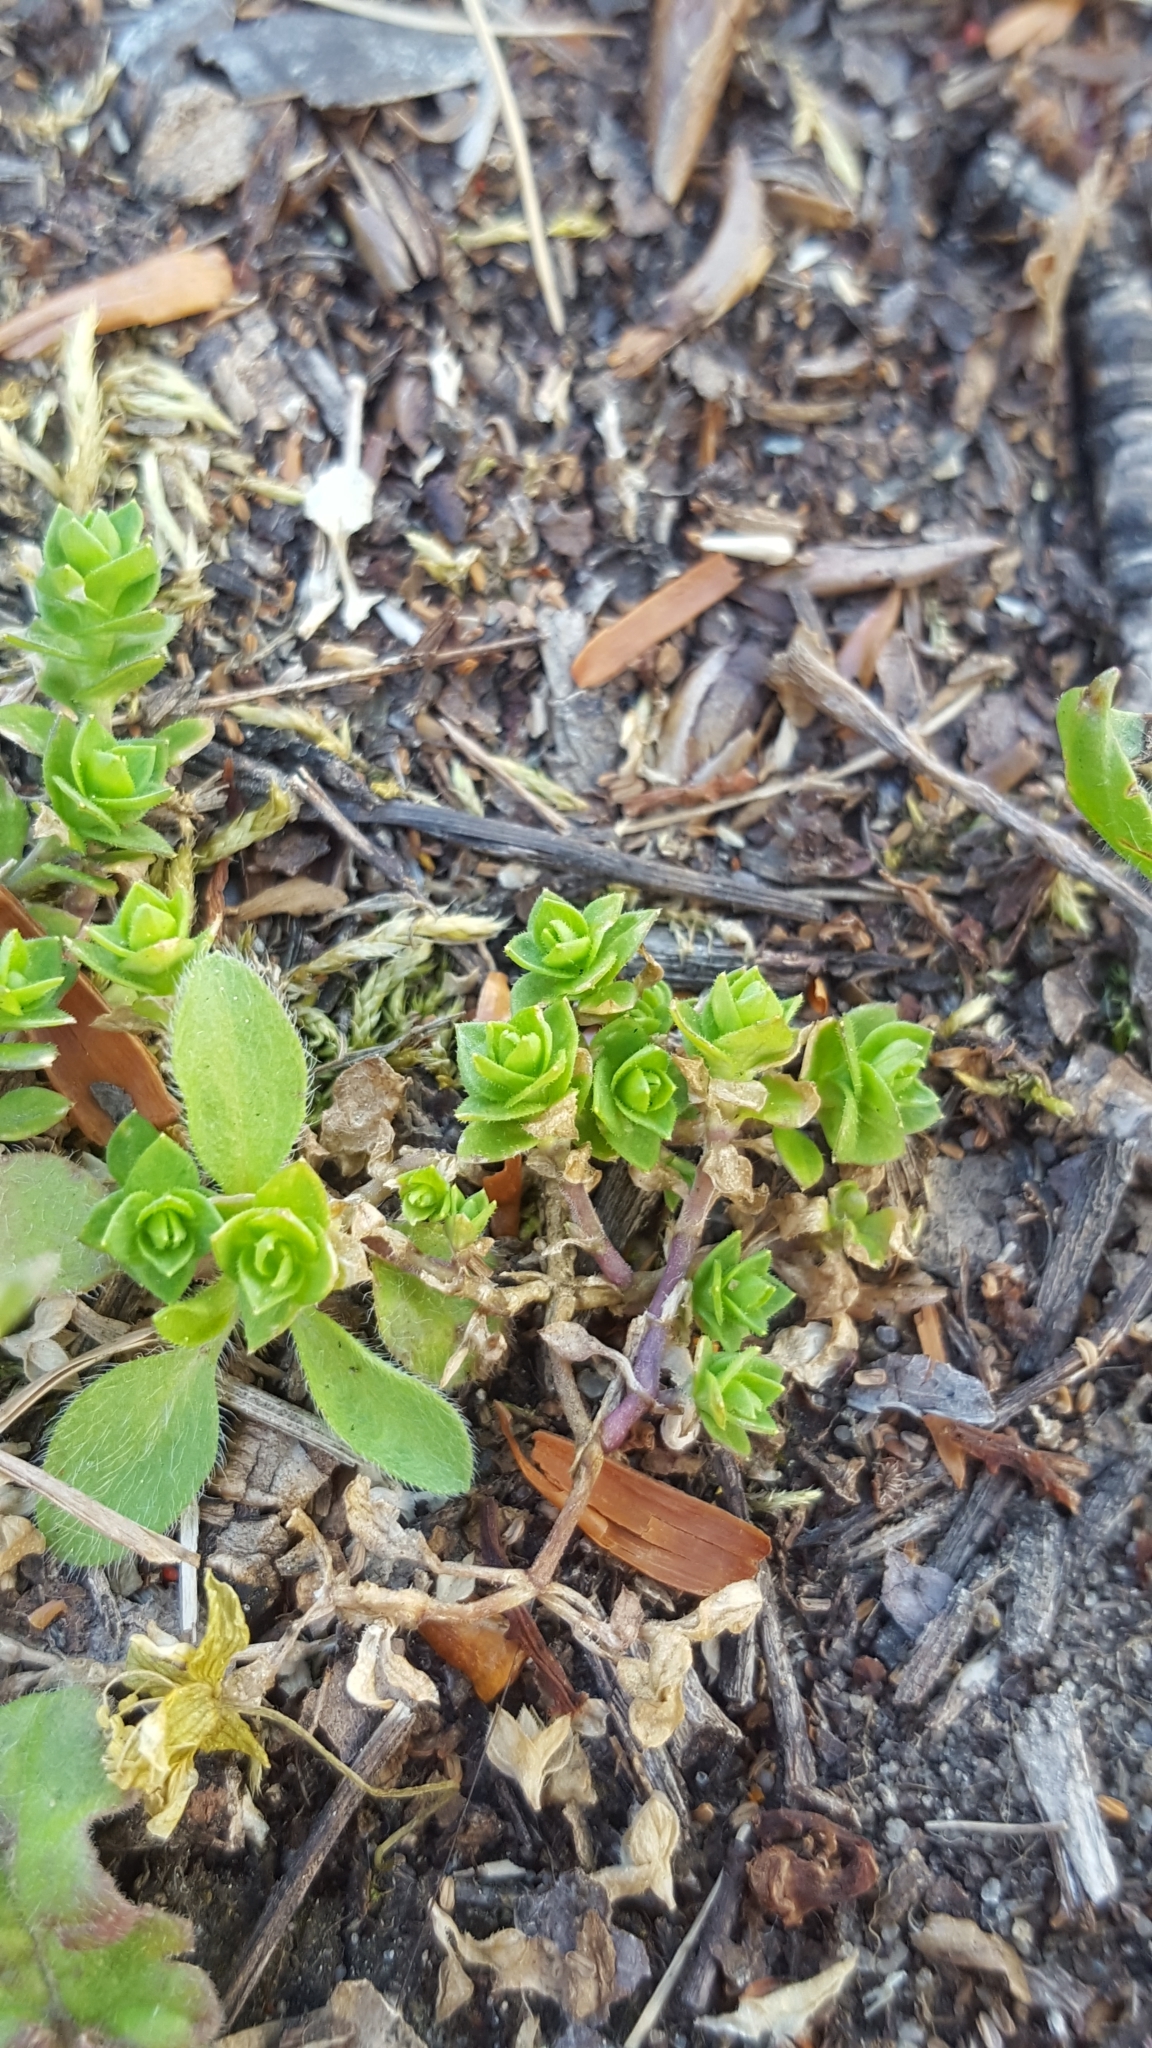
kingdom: Plantae
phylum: Tracheophyta
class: Magnoliopsida
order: Caryophyllales
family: Caryophyllaceae
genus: Arenaria
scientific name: Arenaria serpyllifolia
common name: Thyme-leaved sandwort
